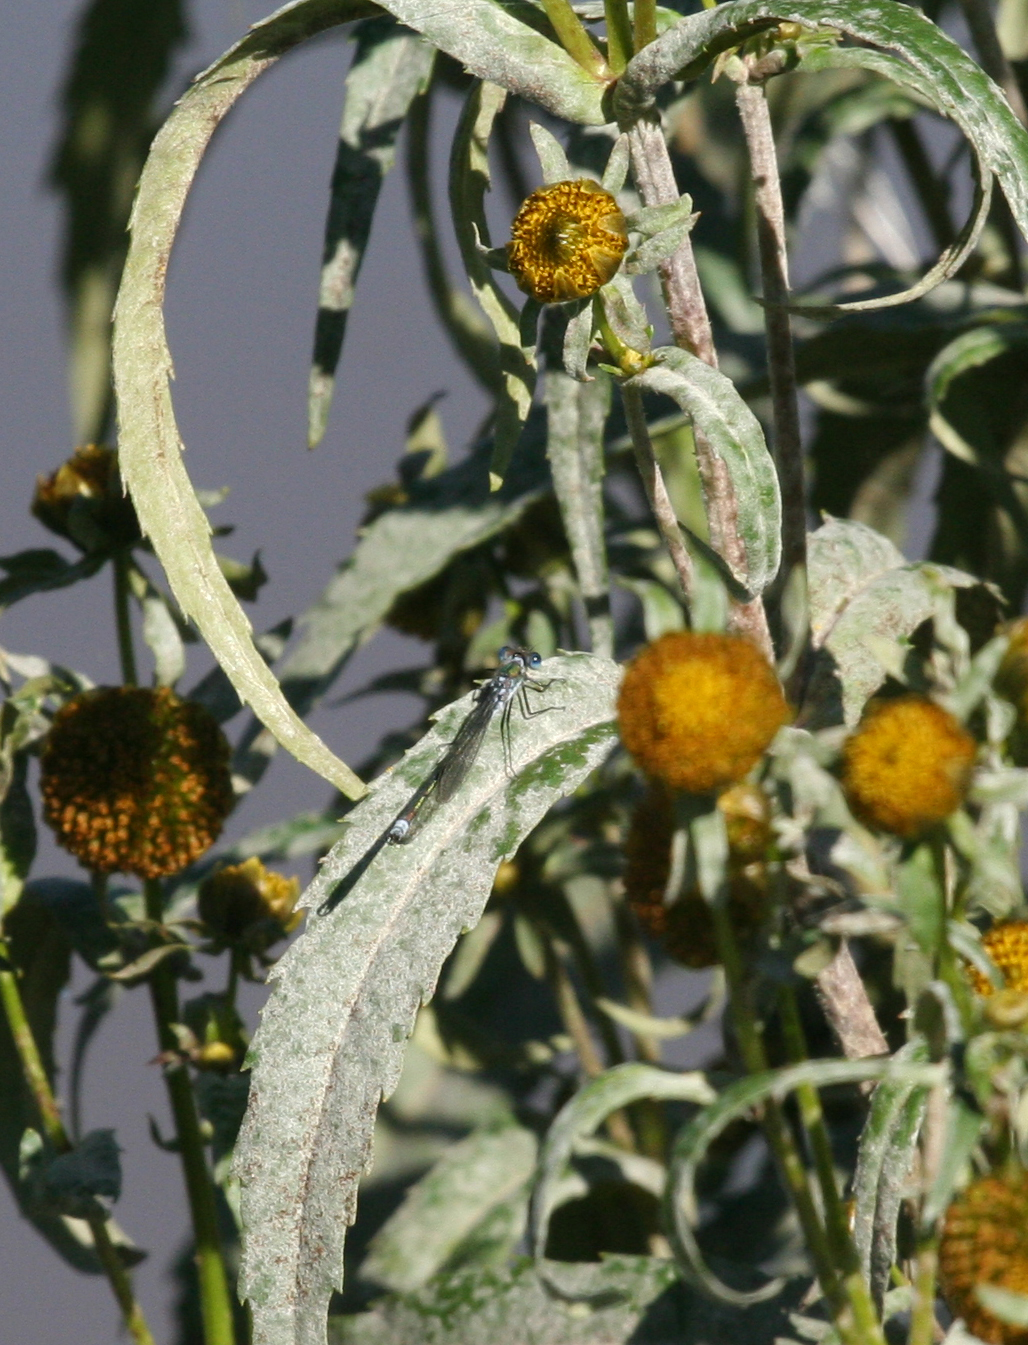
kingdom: Animalia
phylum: Arthropoda
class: Insecta
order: Odonata
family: Lestidae
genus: Lestes
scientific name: Lestes sponsa
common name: Common spreadwing
